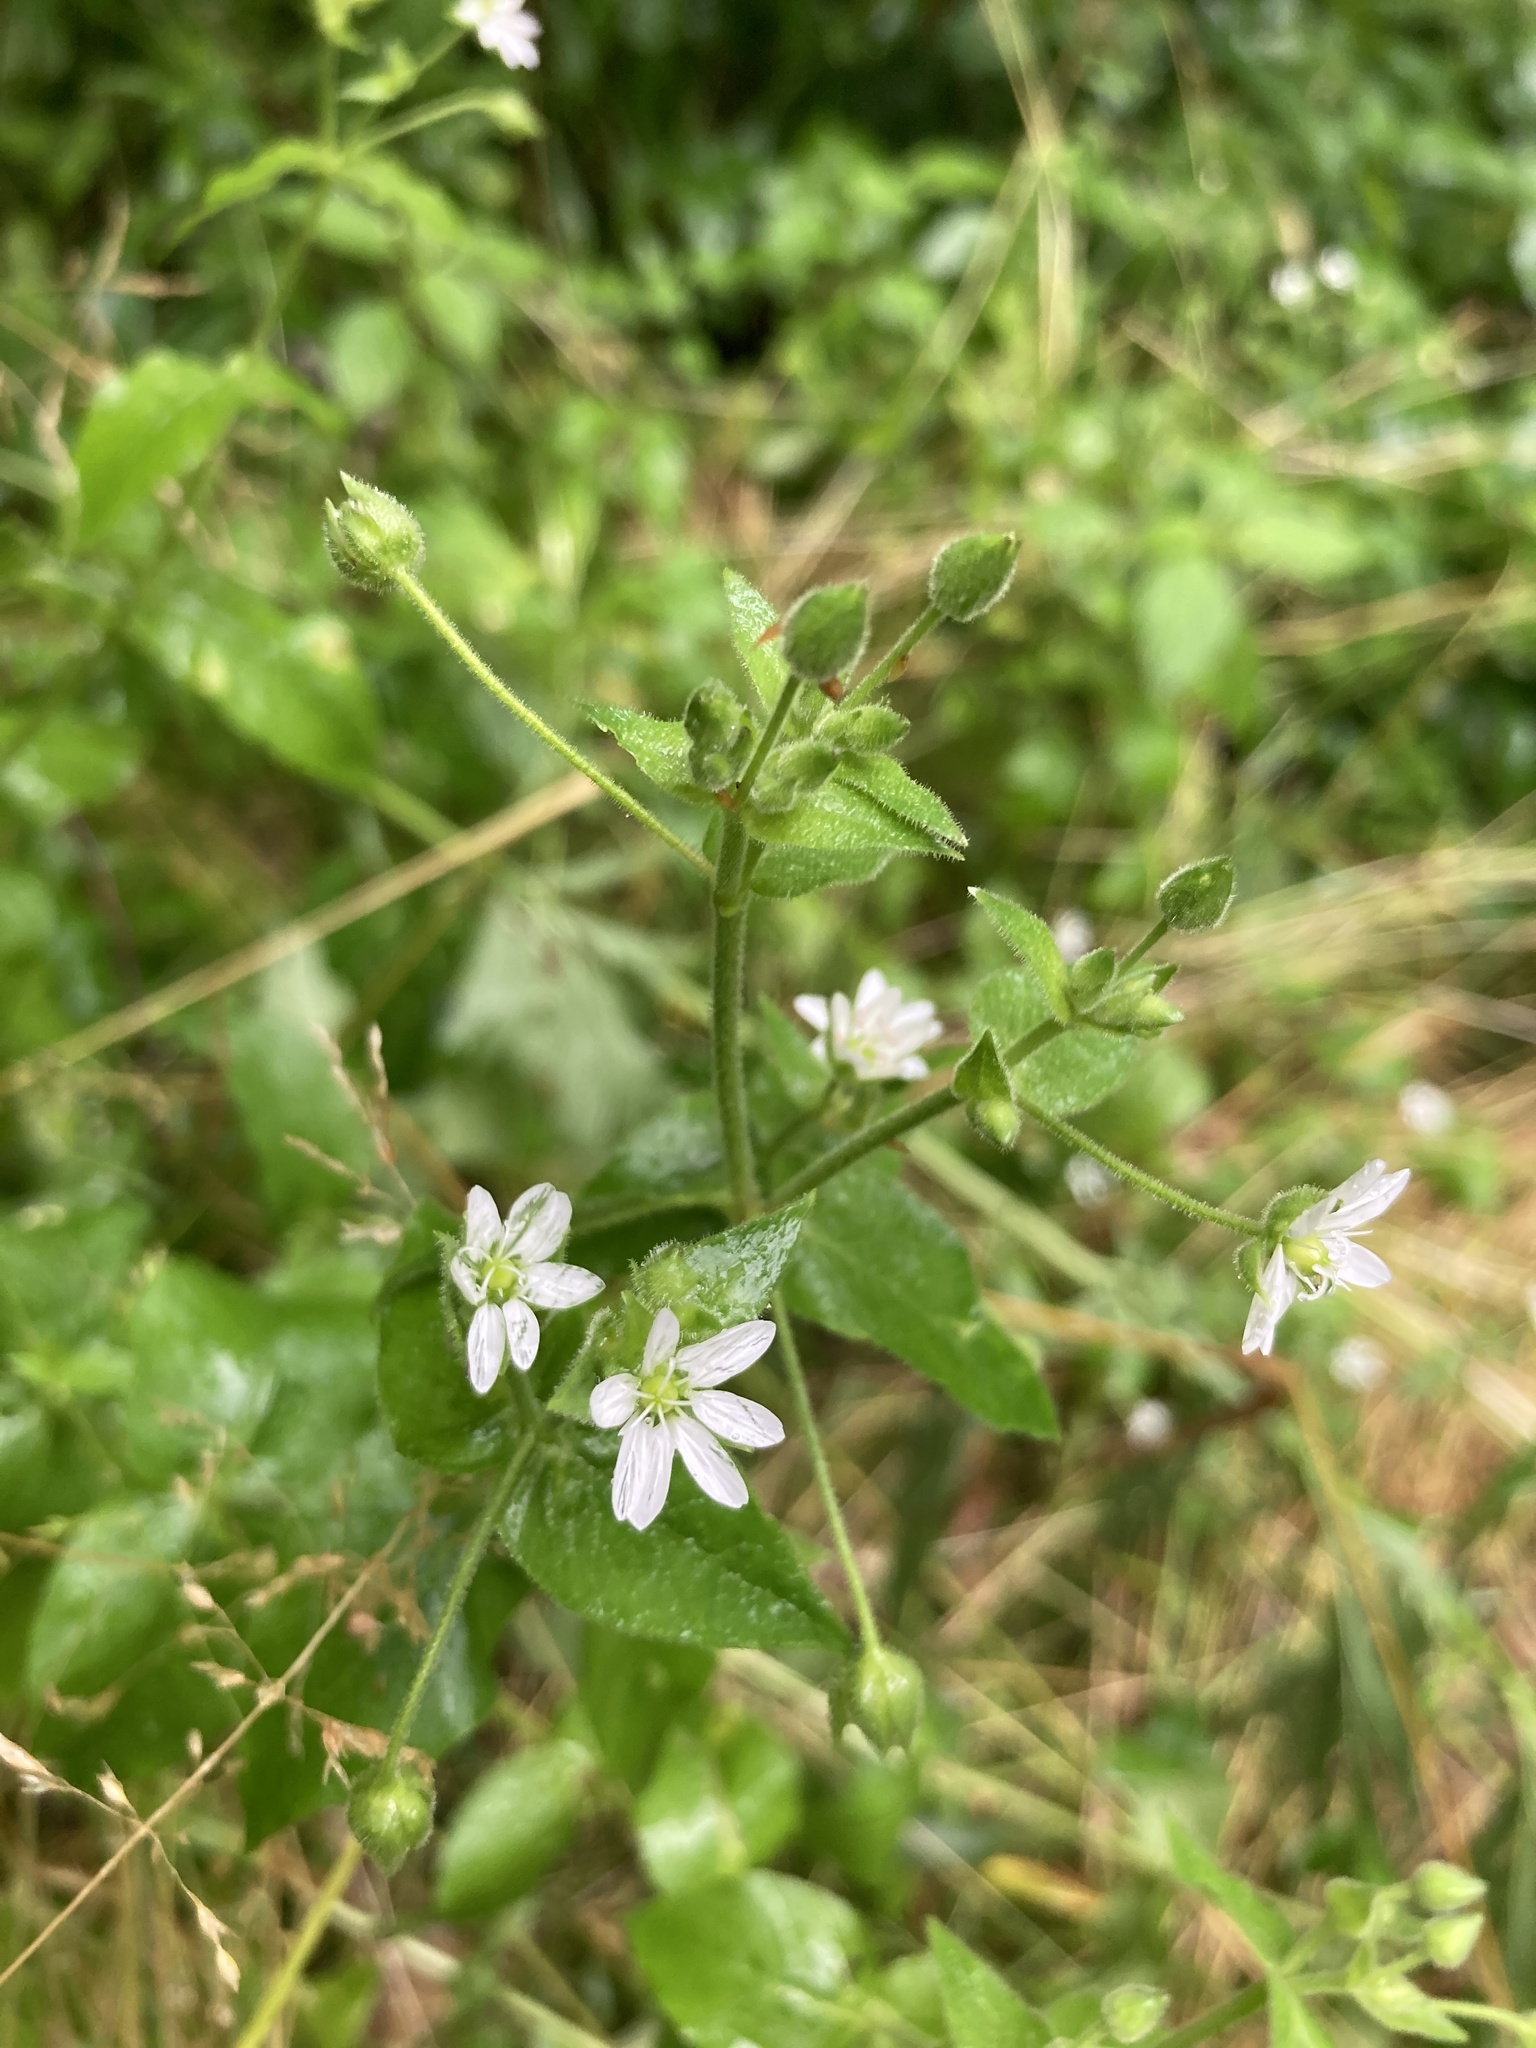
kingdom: Plantae
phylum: Tracheophyta
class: Magnoliopsida
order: Caryophyllales
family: Caryophyllaceae
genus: Stellaria
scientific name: Stellaria aquatica
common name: Water chickweed
